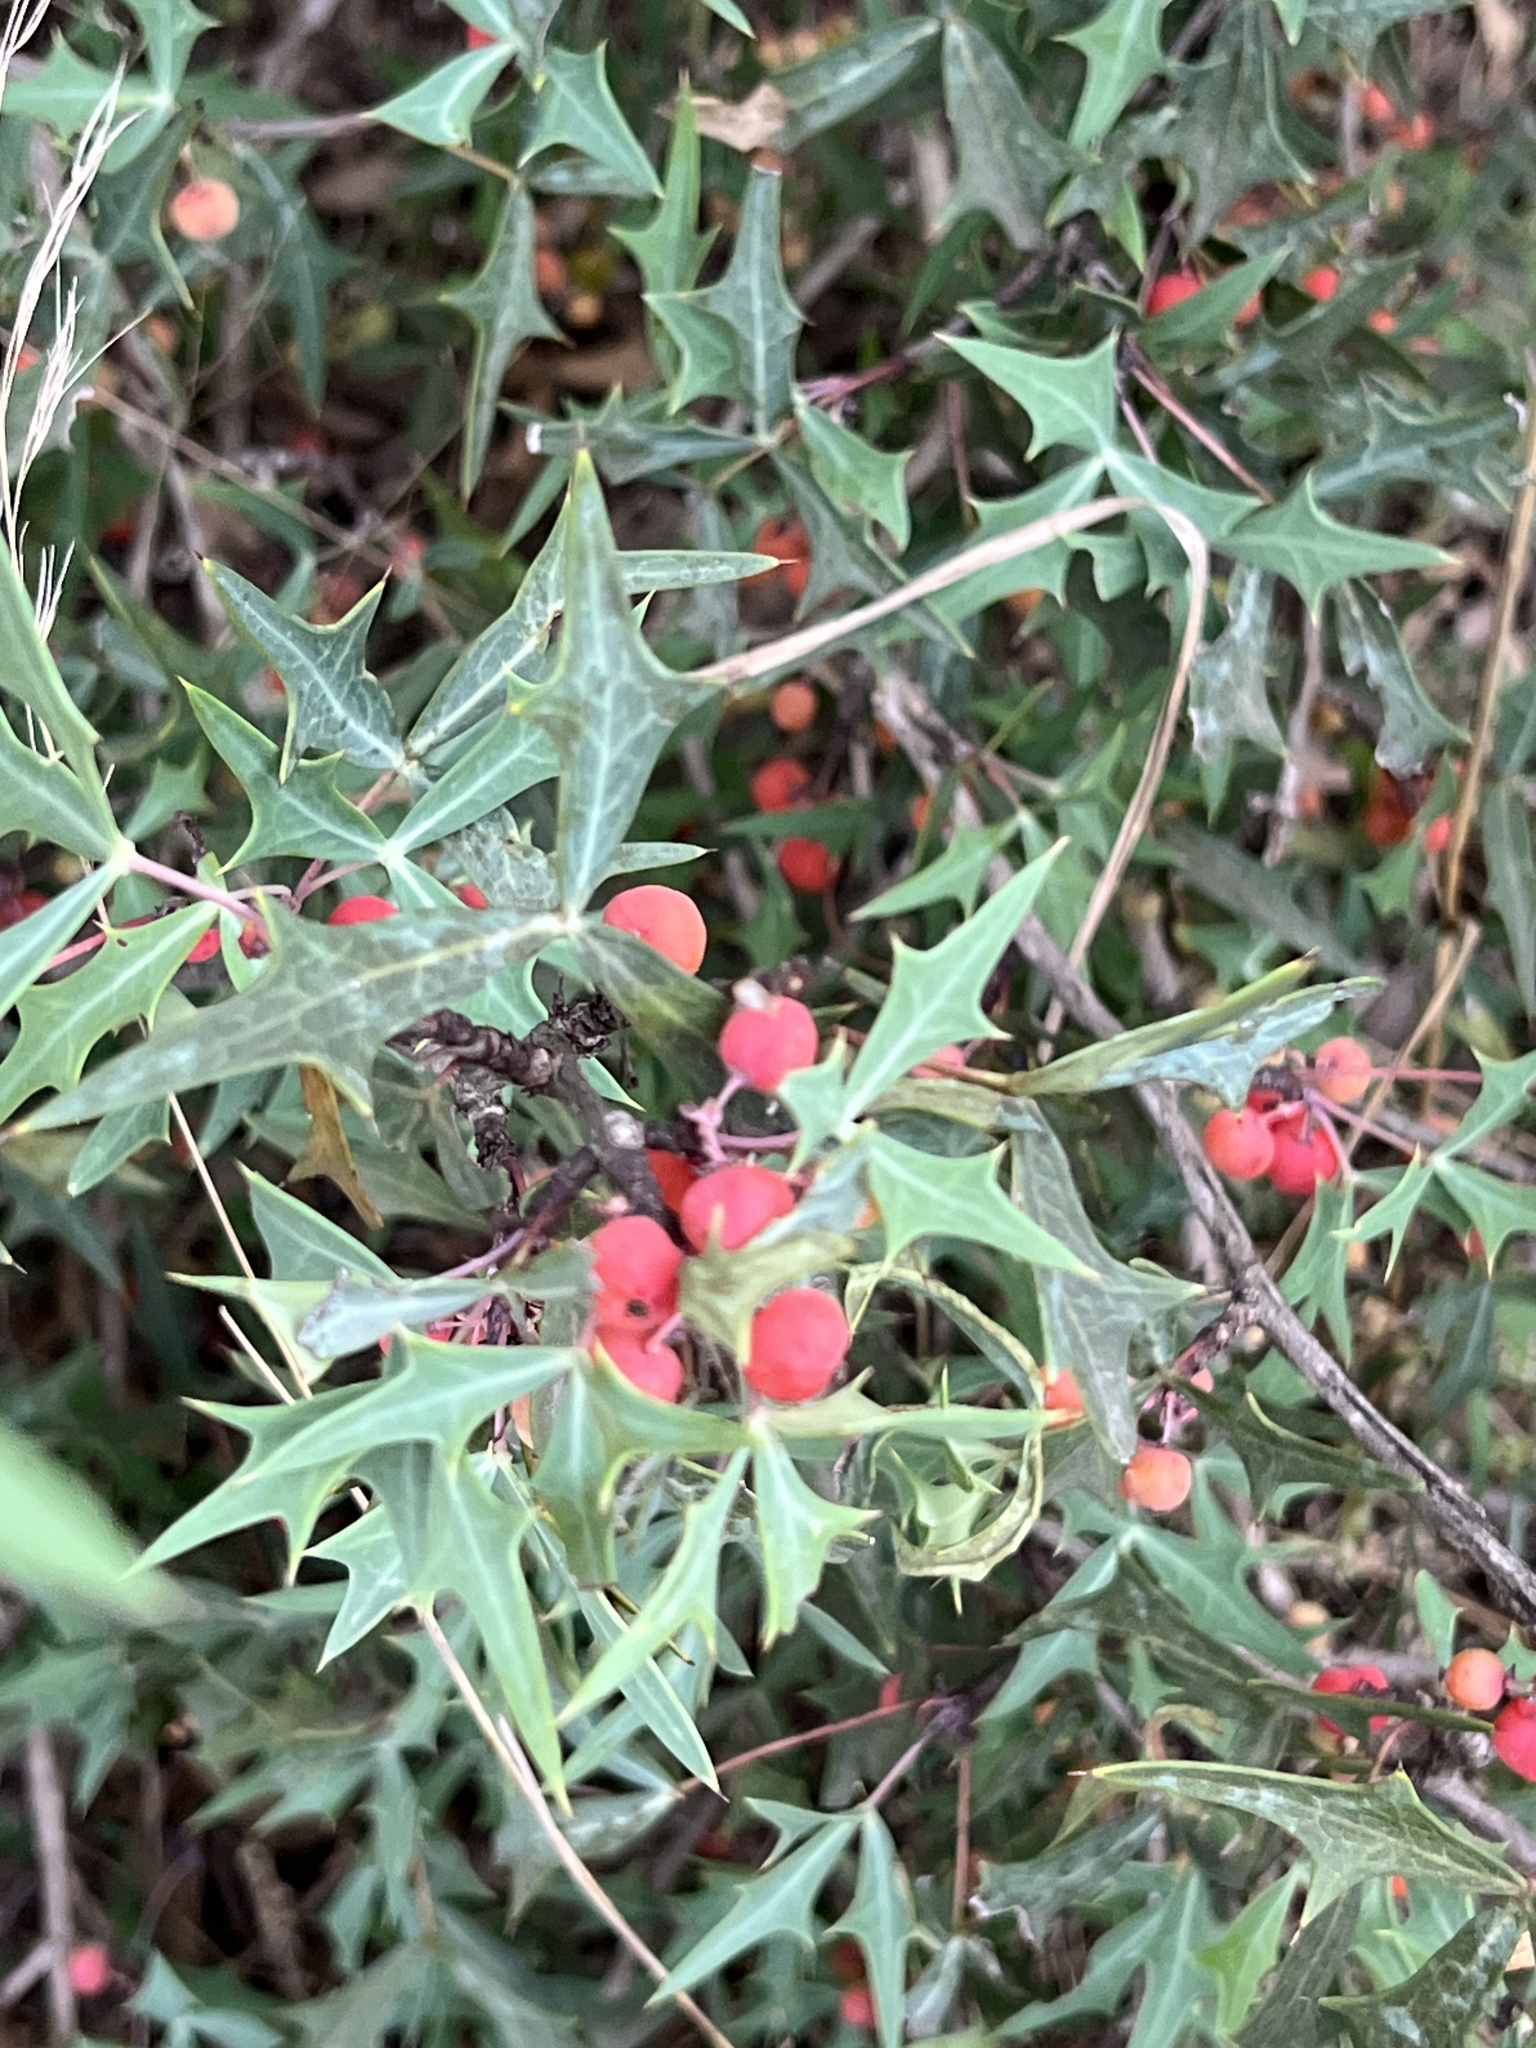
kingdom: Plantae
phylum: Tracheophyta
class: Magnoliopsida
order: Ranunculales
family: Berberidaceae
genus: Alloberberis
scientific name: Alloberberis trifoliolata
